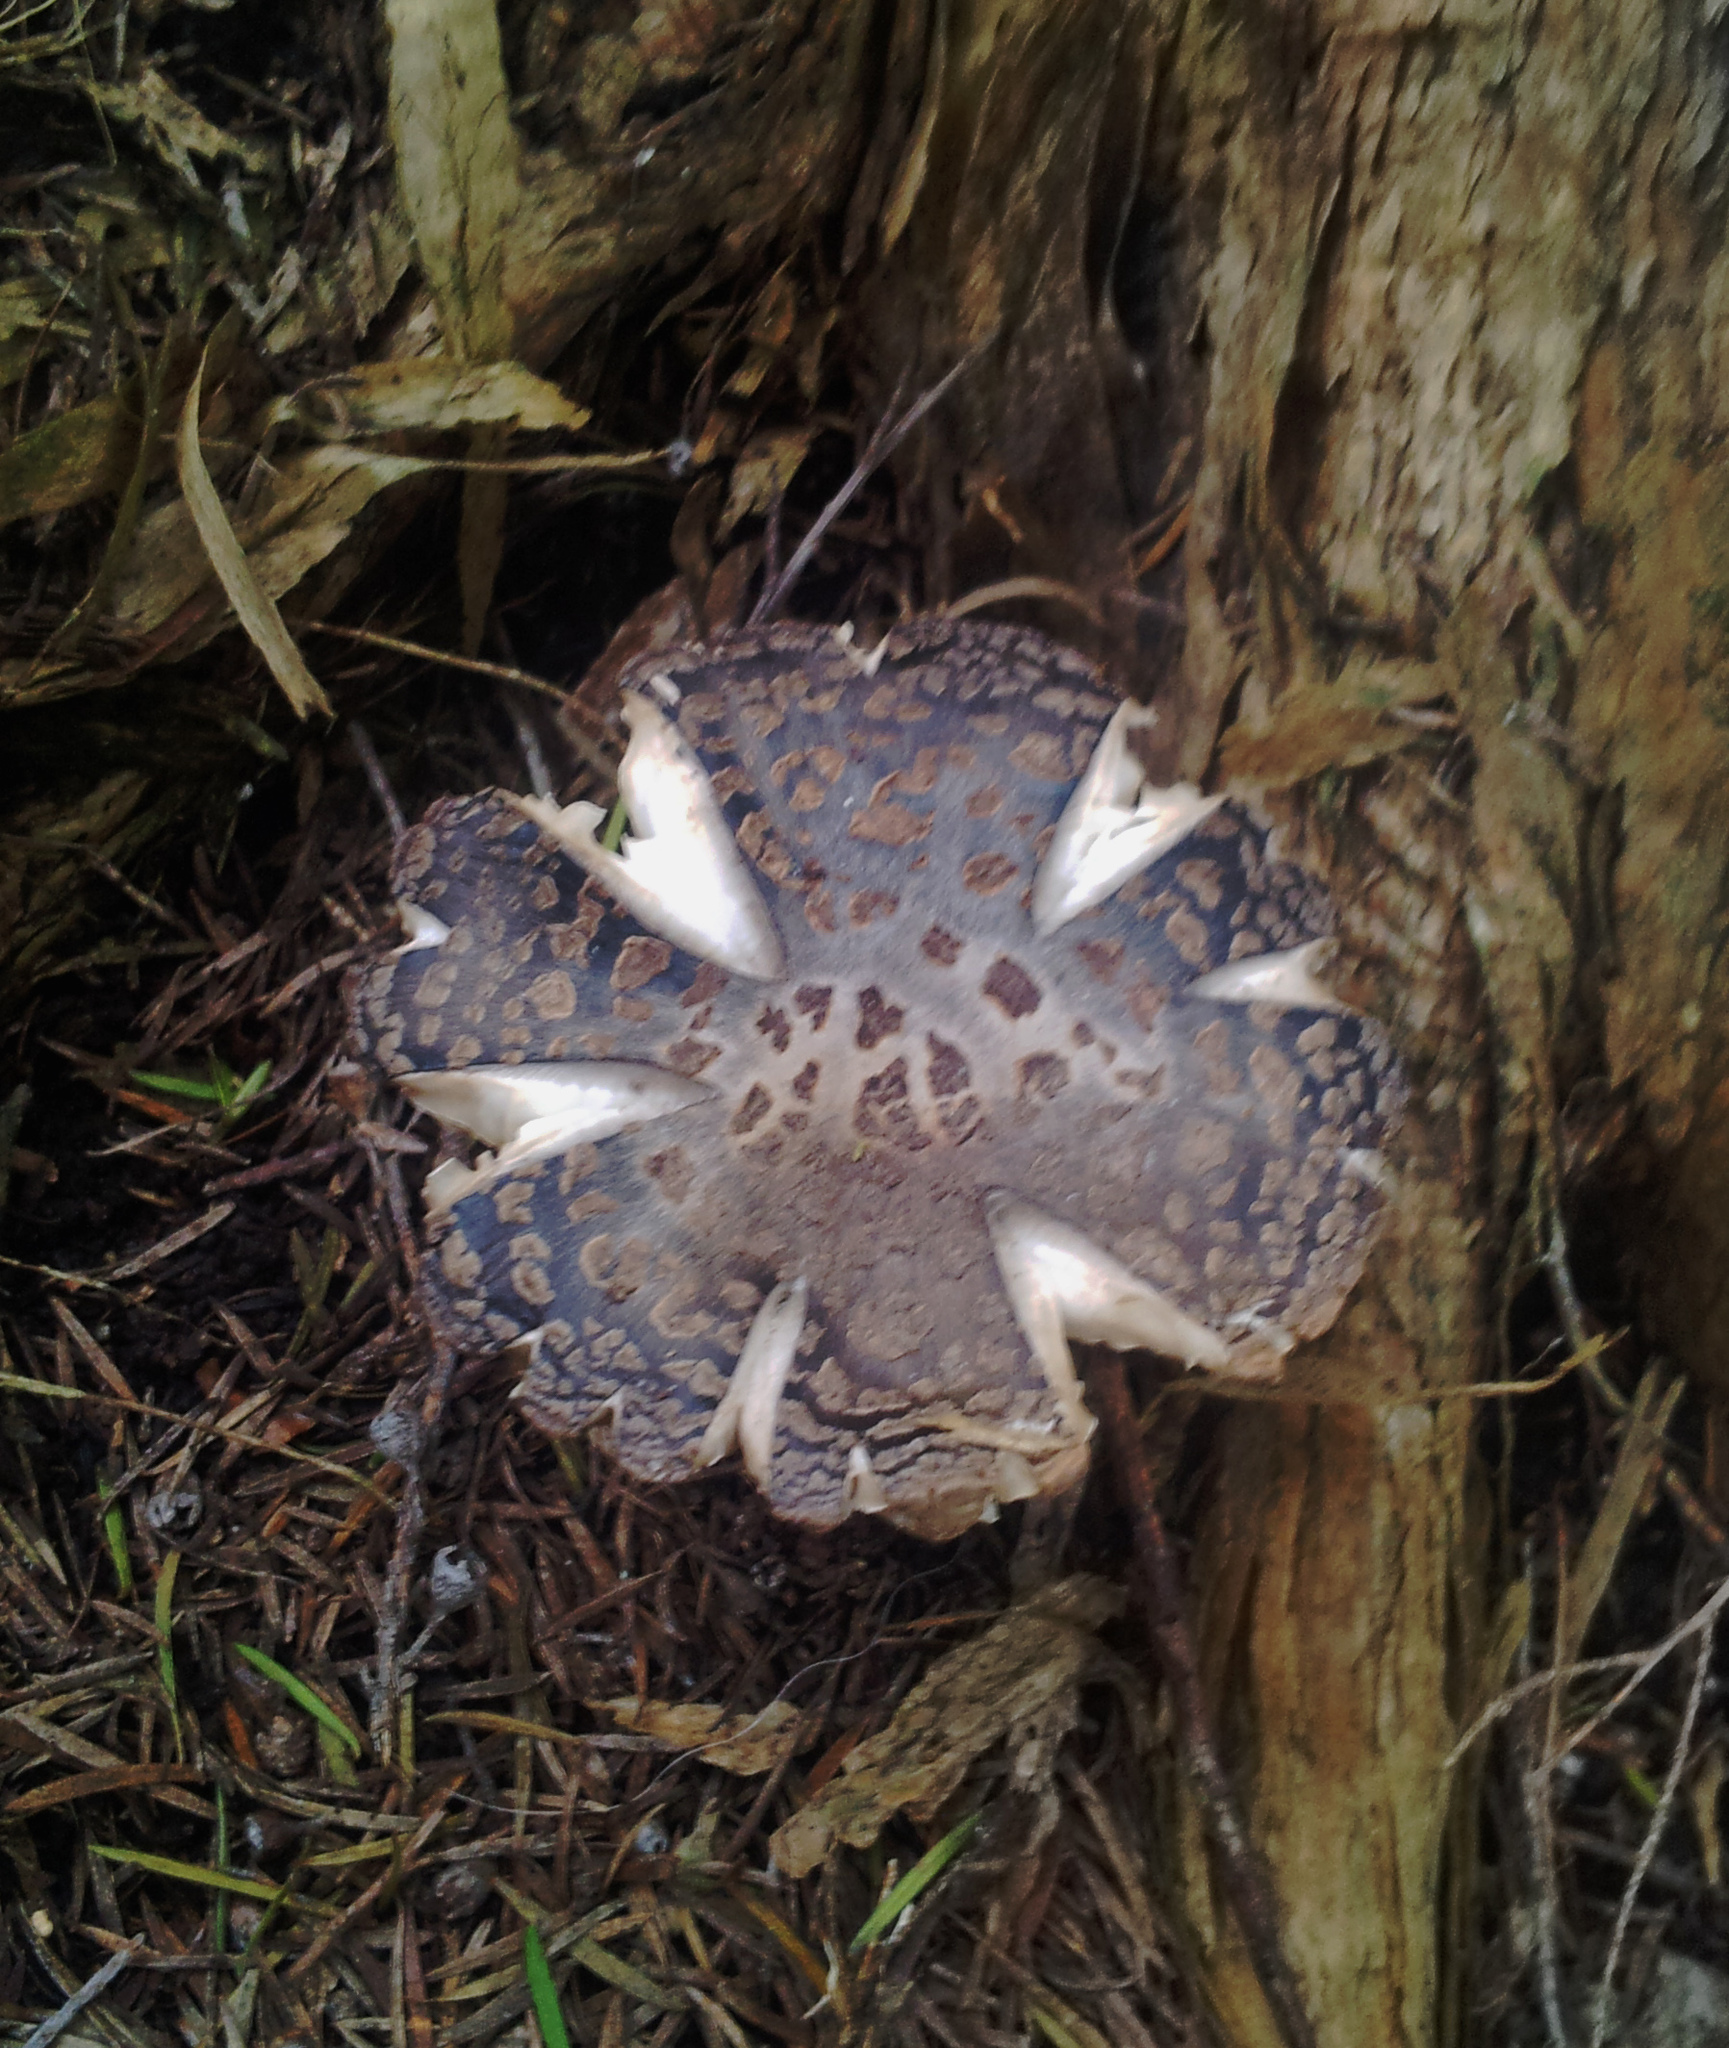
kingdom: Fungi
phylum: Basidiomycota
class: Agaricomycetes
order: Russulales
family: Russulaceae
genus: Russula
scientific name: Russula griseoviridis
